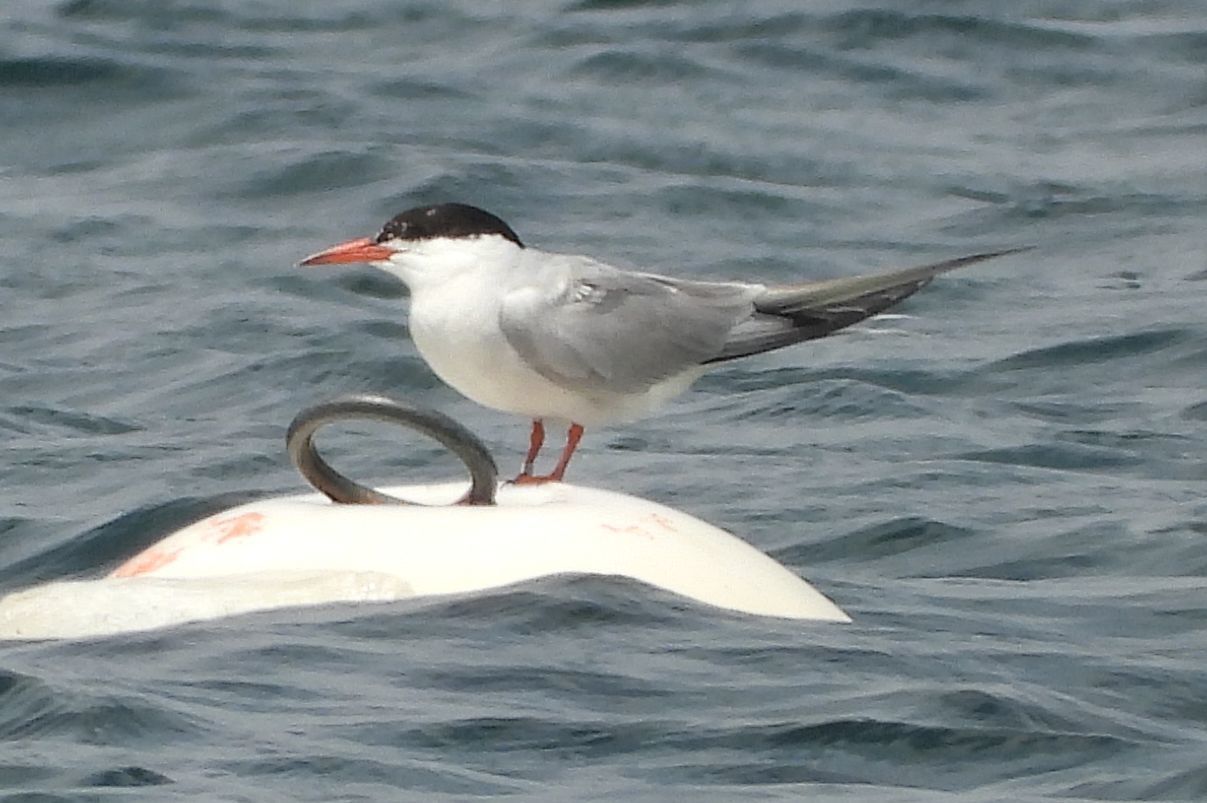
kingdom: Animalia
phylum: Chordata
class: Aves
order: Charadriiformes
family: Laridae
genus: Sterna
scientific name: Sterna hirundo
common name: Common tern
